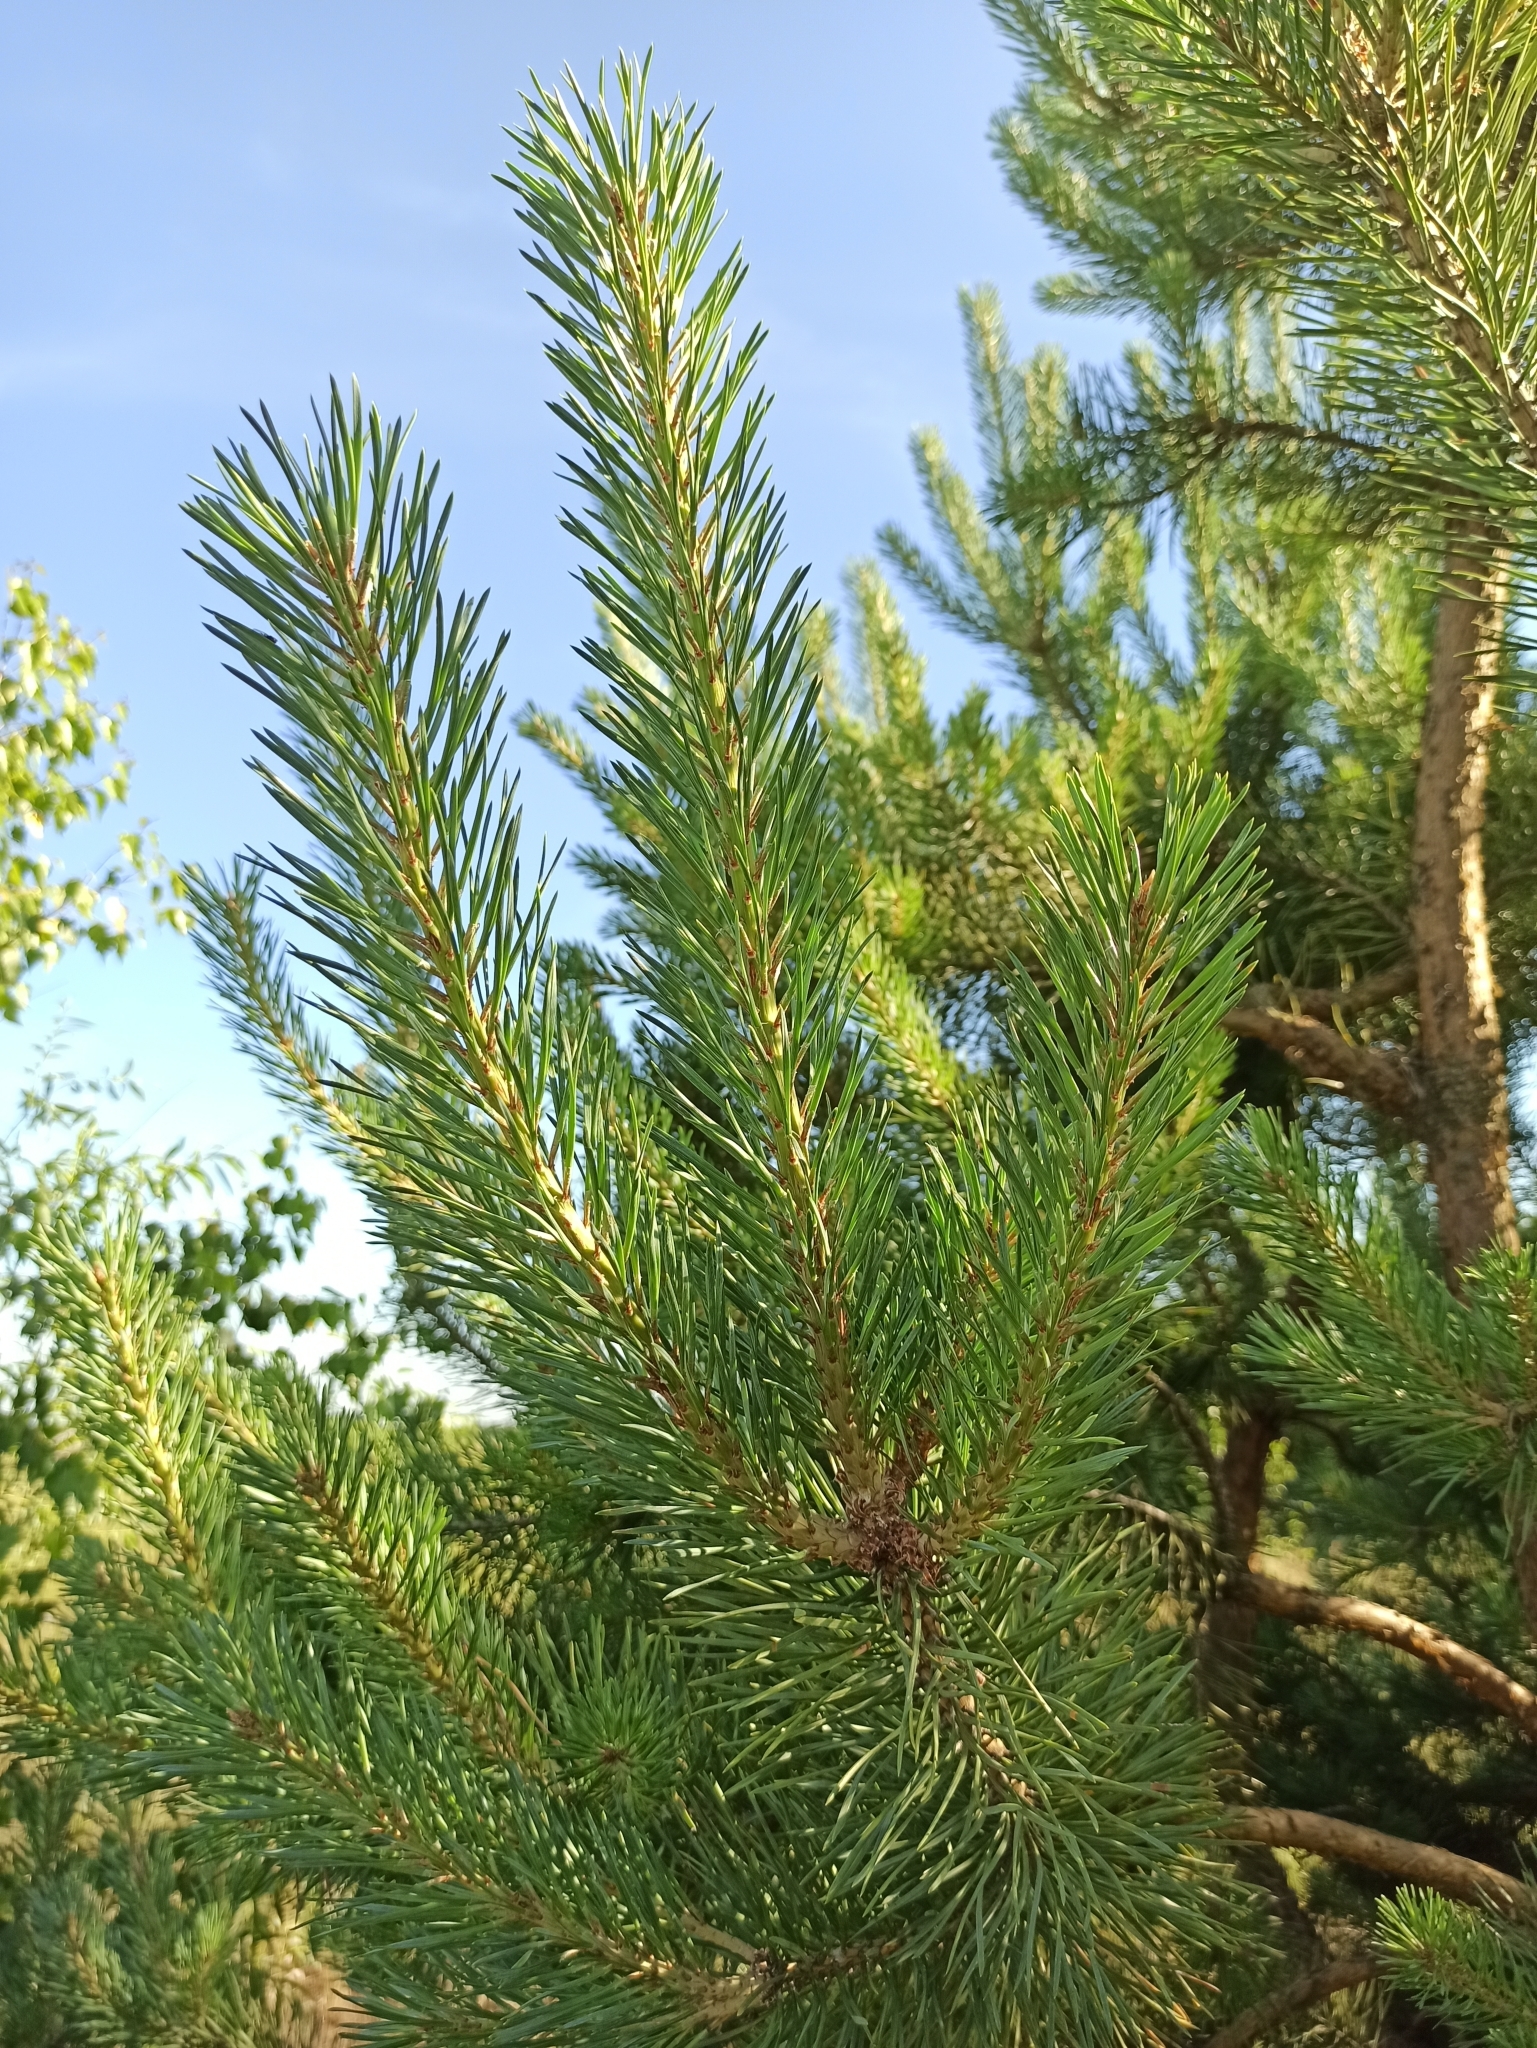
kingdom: Plantae
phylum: Tracheophyta
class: Pinopsida
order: Pinales
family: Pinaceae
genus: Pinus
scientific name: Pinus sylvestris
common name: Scots pine
